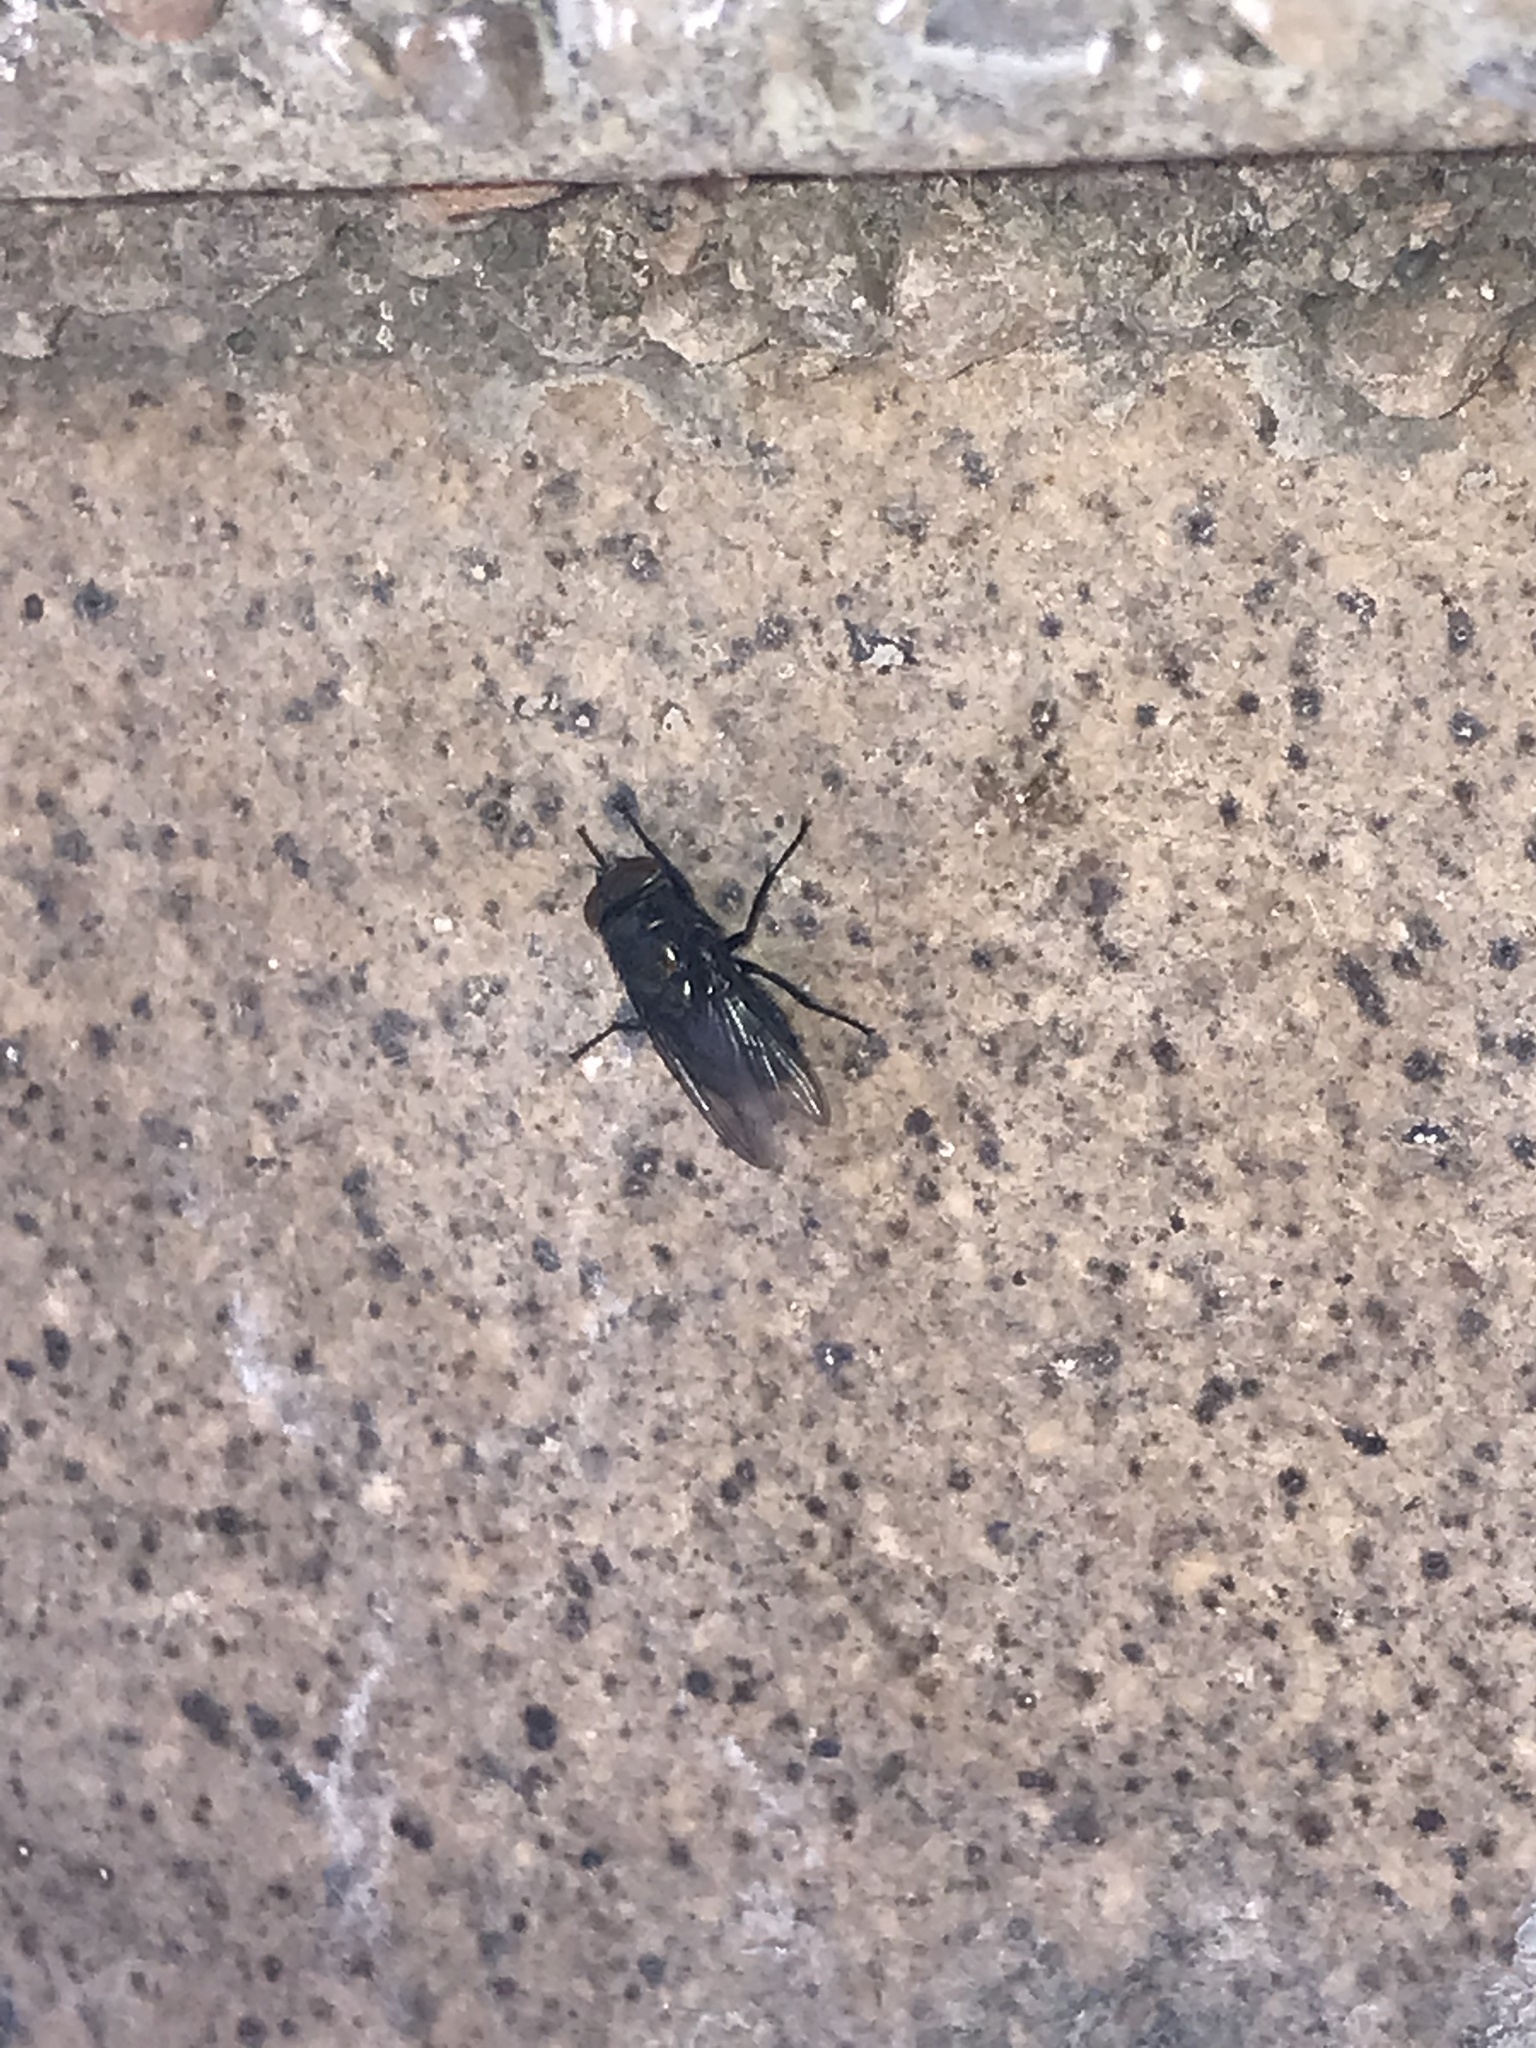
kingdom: Animalia
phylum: Arthropoda
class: Insecta
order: Diptera
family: Calliphoridae
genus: Phormia
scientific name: Phormia regina
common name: Black blow fly
